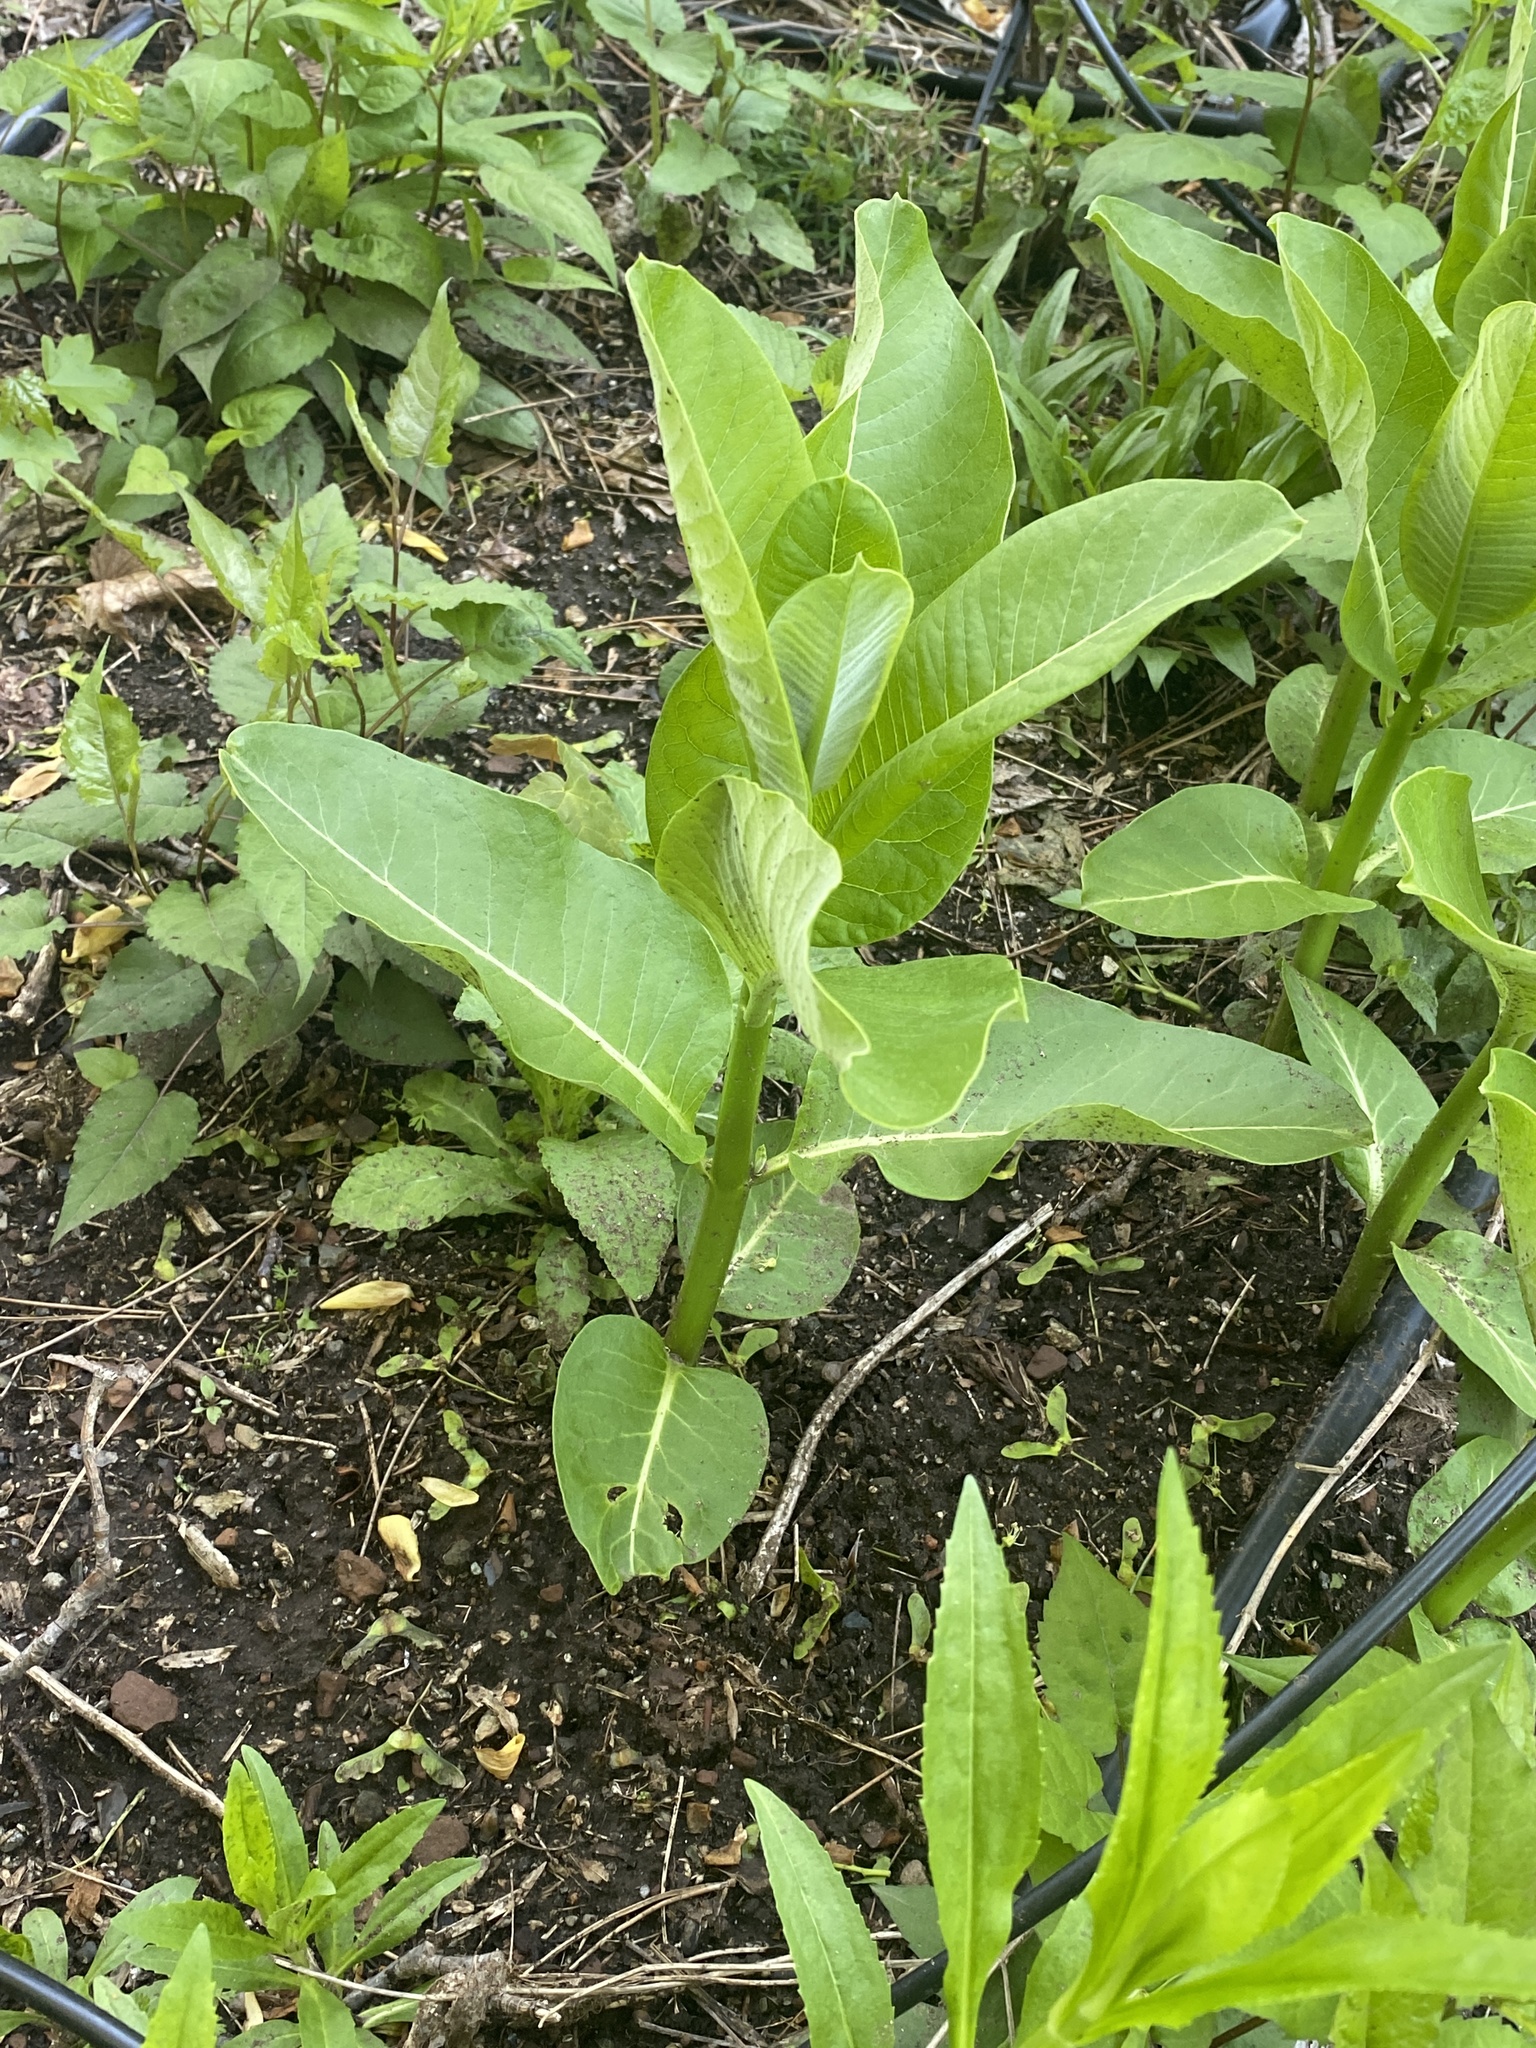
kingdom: Plantae
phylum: Tracheophyta
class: Magnoliopsida
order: Gentianales
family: Apocynaceae
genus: Asclepias
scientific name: Asclepias syriaca
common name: Common milkweed
